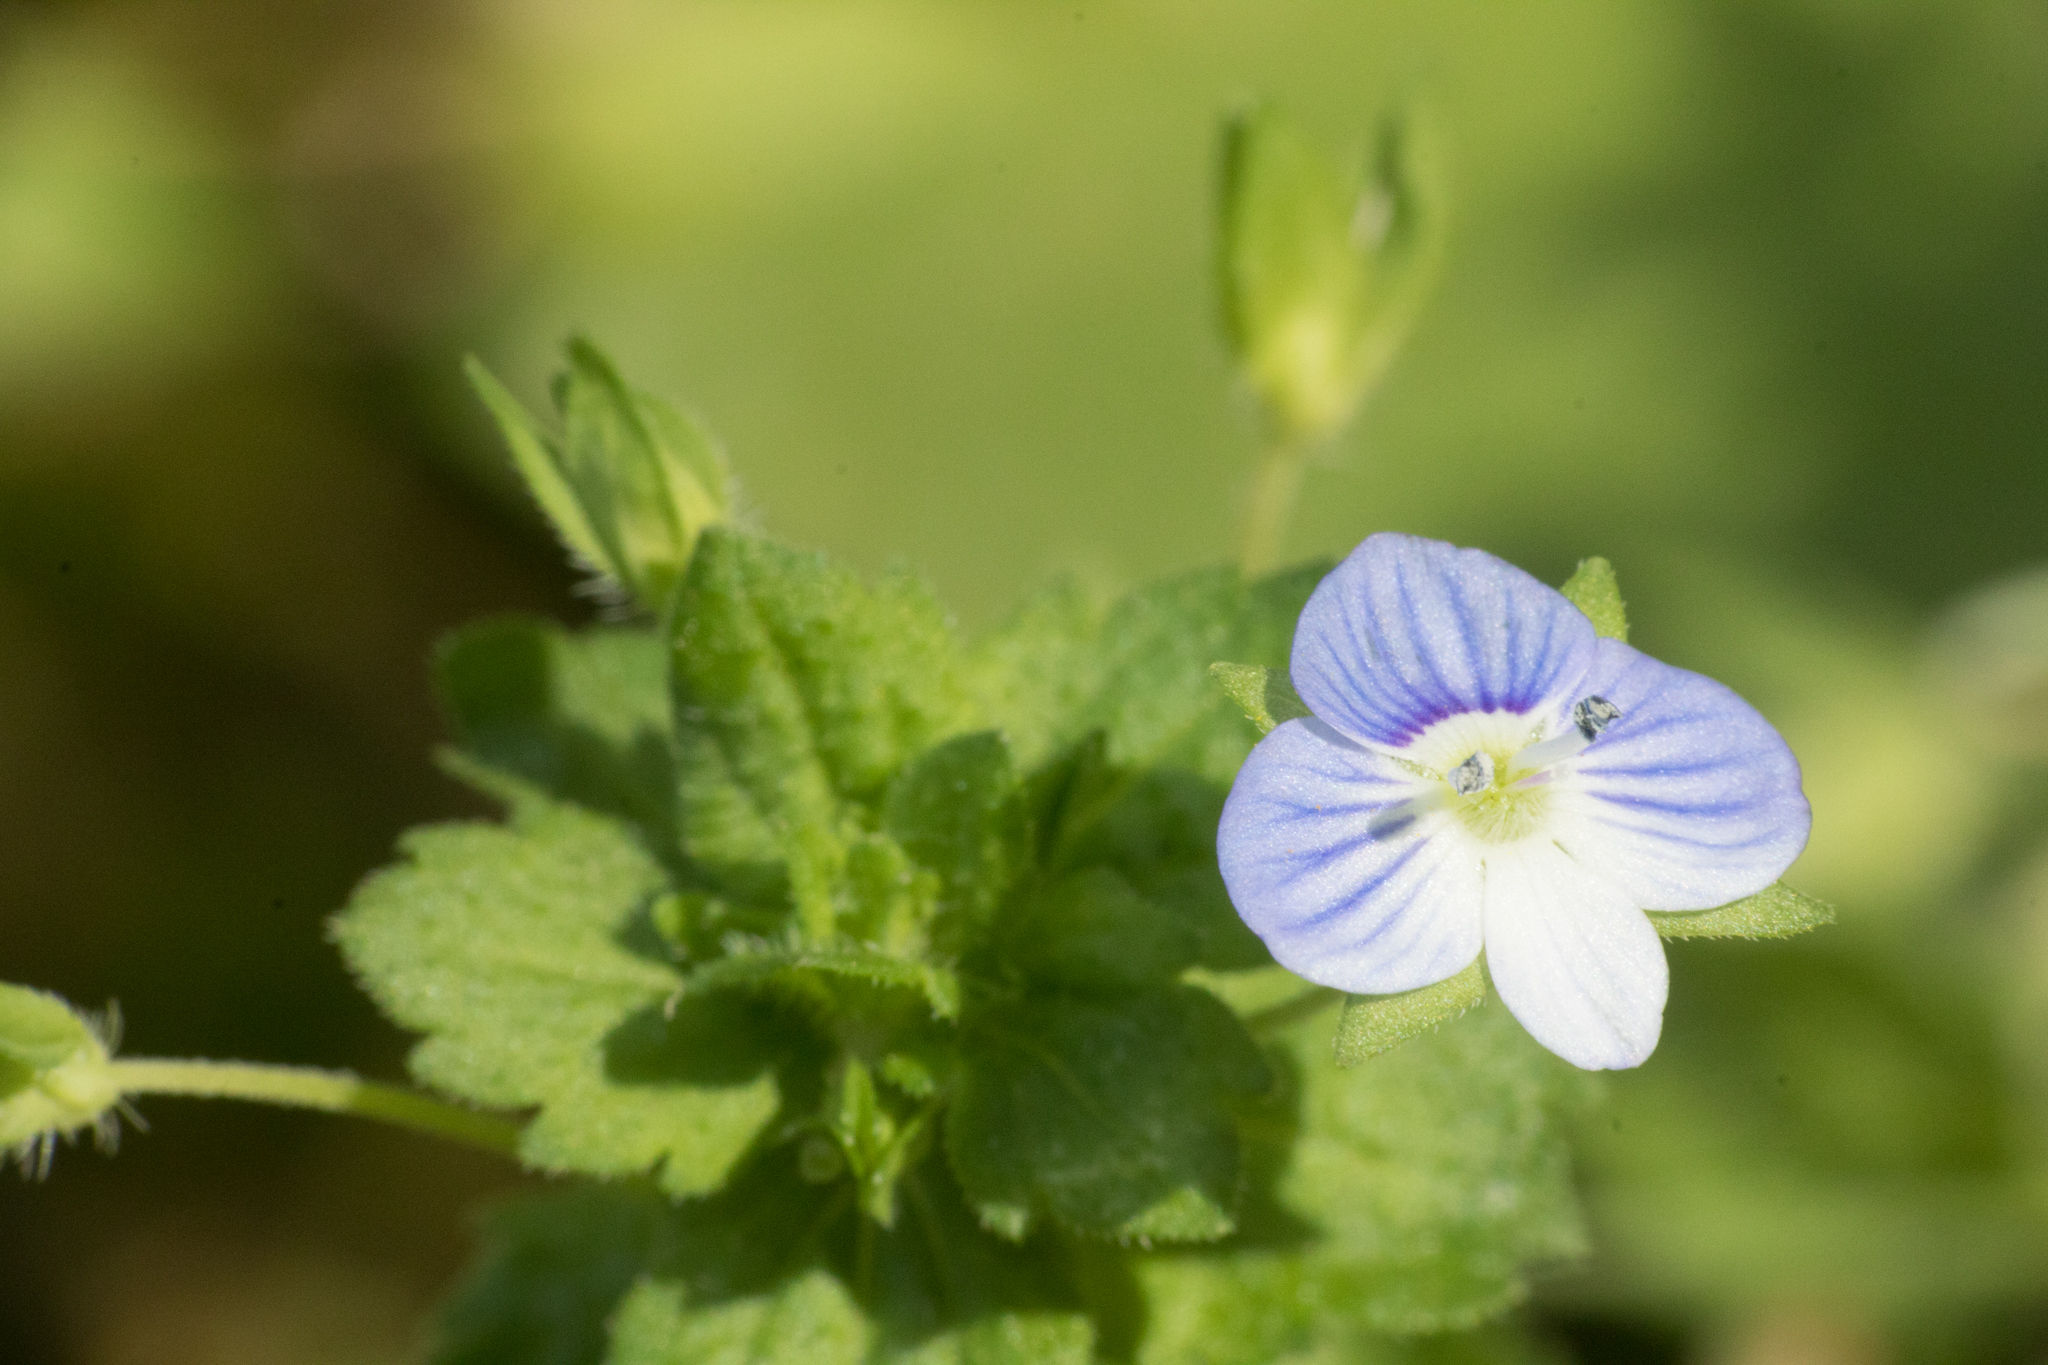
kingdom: Plantae
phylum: Tracheophyta
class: Magnoliopsida
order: Lamiales
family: Plantaginaceae
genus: Veronica
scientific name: Veronica persica
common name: Common field-speedwell
